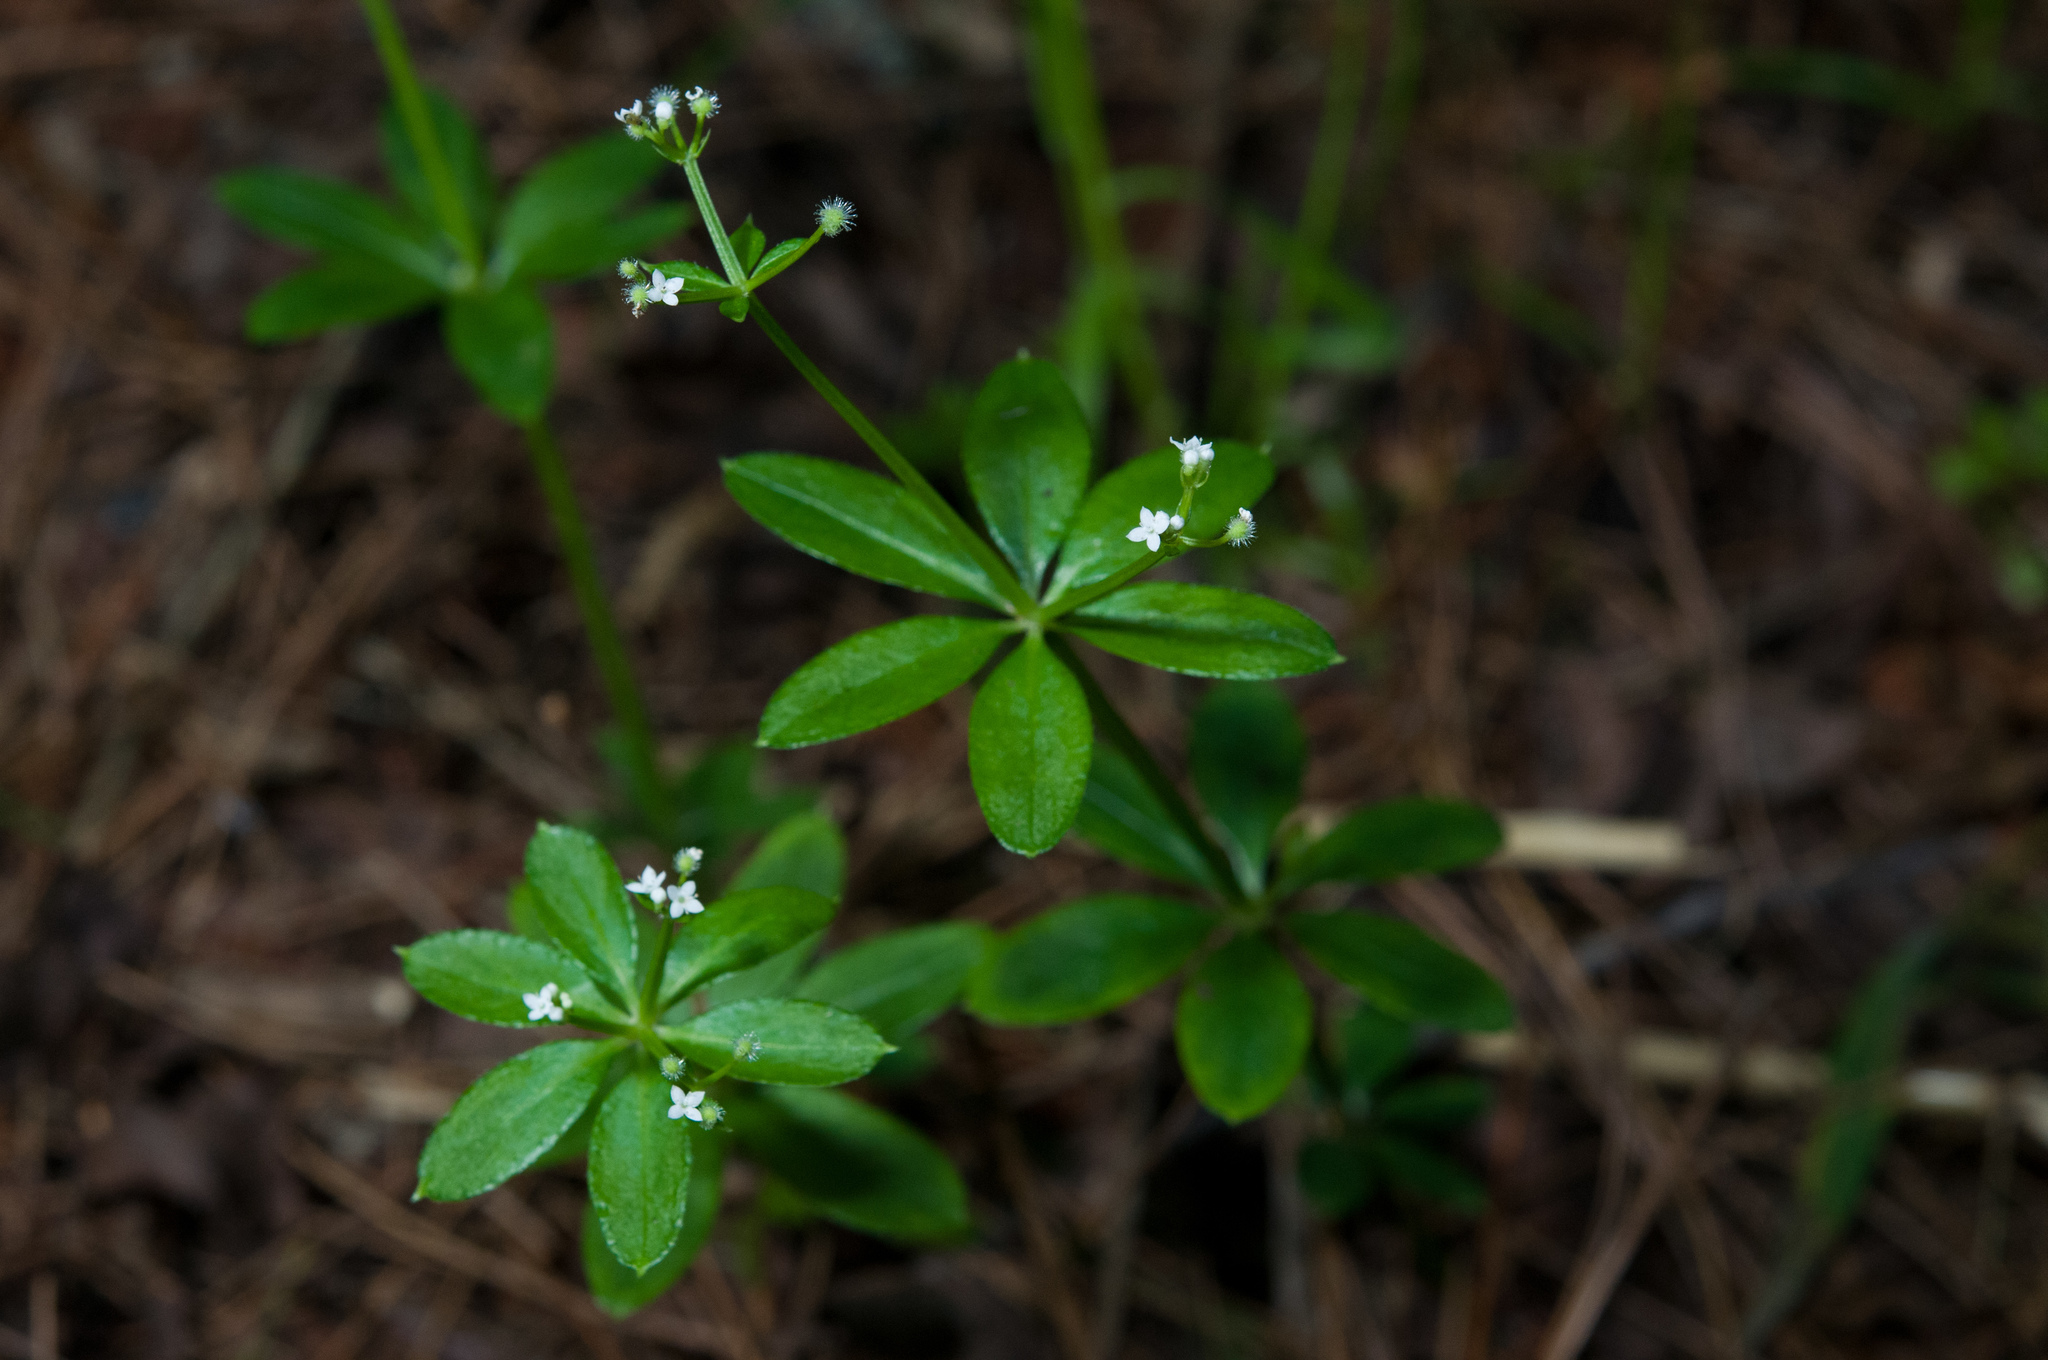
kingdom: Plantae
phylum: Tracheophyta
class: Magnoliopsida
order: Gentianales
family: Rubiaceae
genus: Galium
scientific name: Galium echinocarpum
